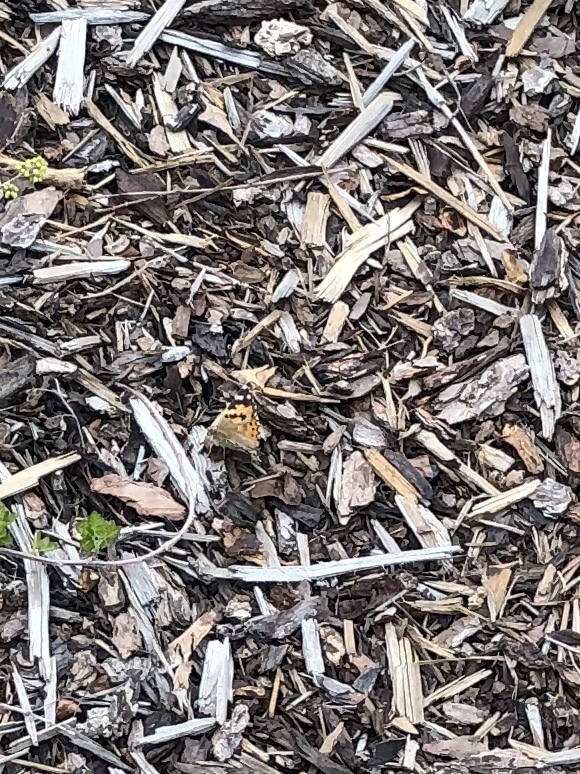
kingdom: Animalia
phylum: Arthropoda
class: Insecta
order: Lepidoptera
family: Nymphalidae
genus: Vanessa
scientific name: Vanessa cardui
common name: Painted lady
